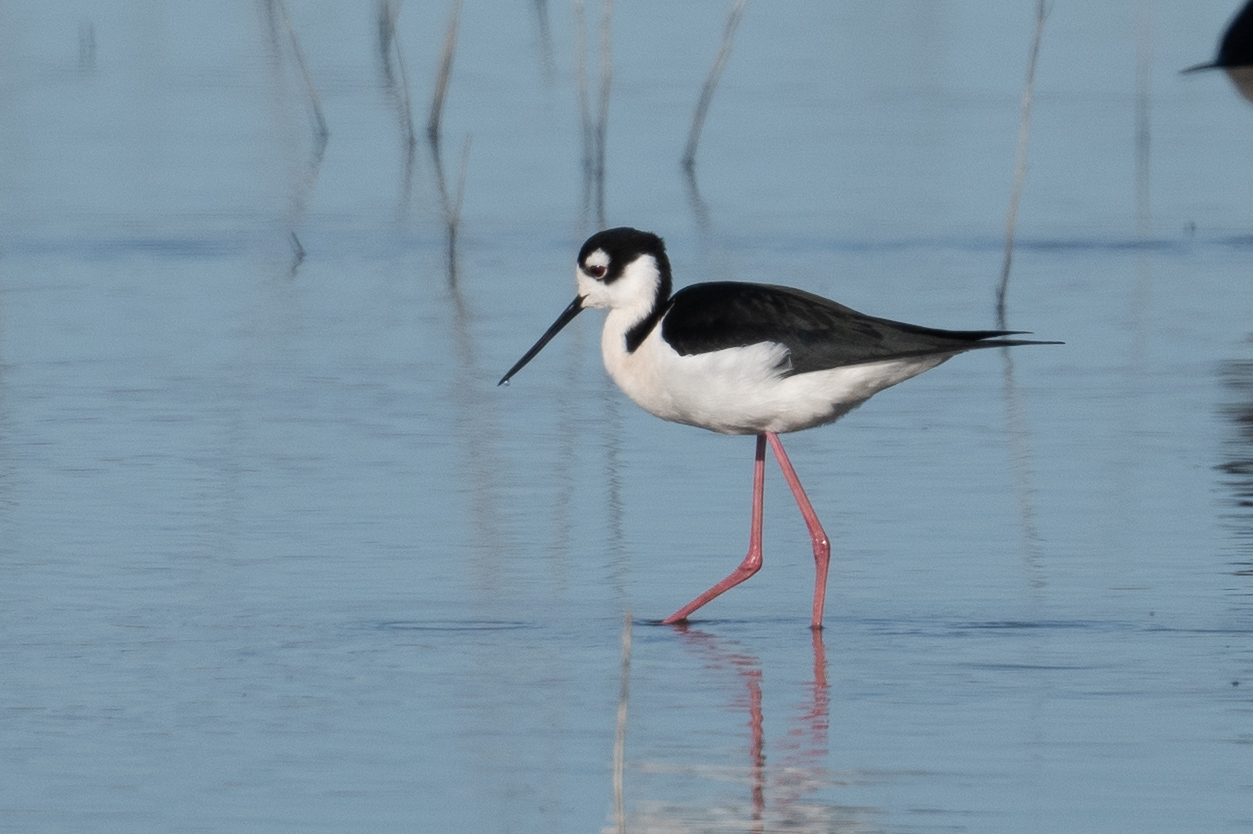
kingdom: Animalia
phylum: Chordata
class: Aves
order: Charadriiformes
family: Recurvirostridae
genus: Himantopus
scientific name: Himantopus mexicanus
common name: Black-necked stilt
